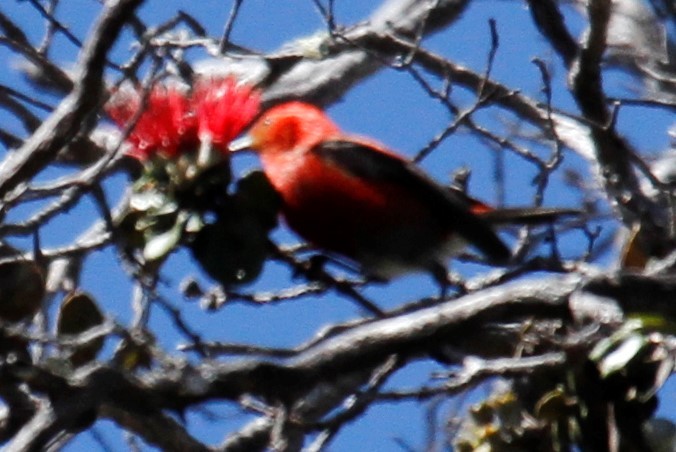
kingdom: Animalia
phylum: Chordata
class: Aves
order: Passeriformes
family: Fringillidae
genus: Himatione
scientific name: Himatione sanguinea
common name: Apapane
